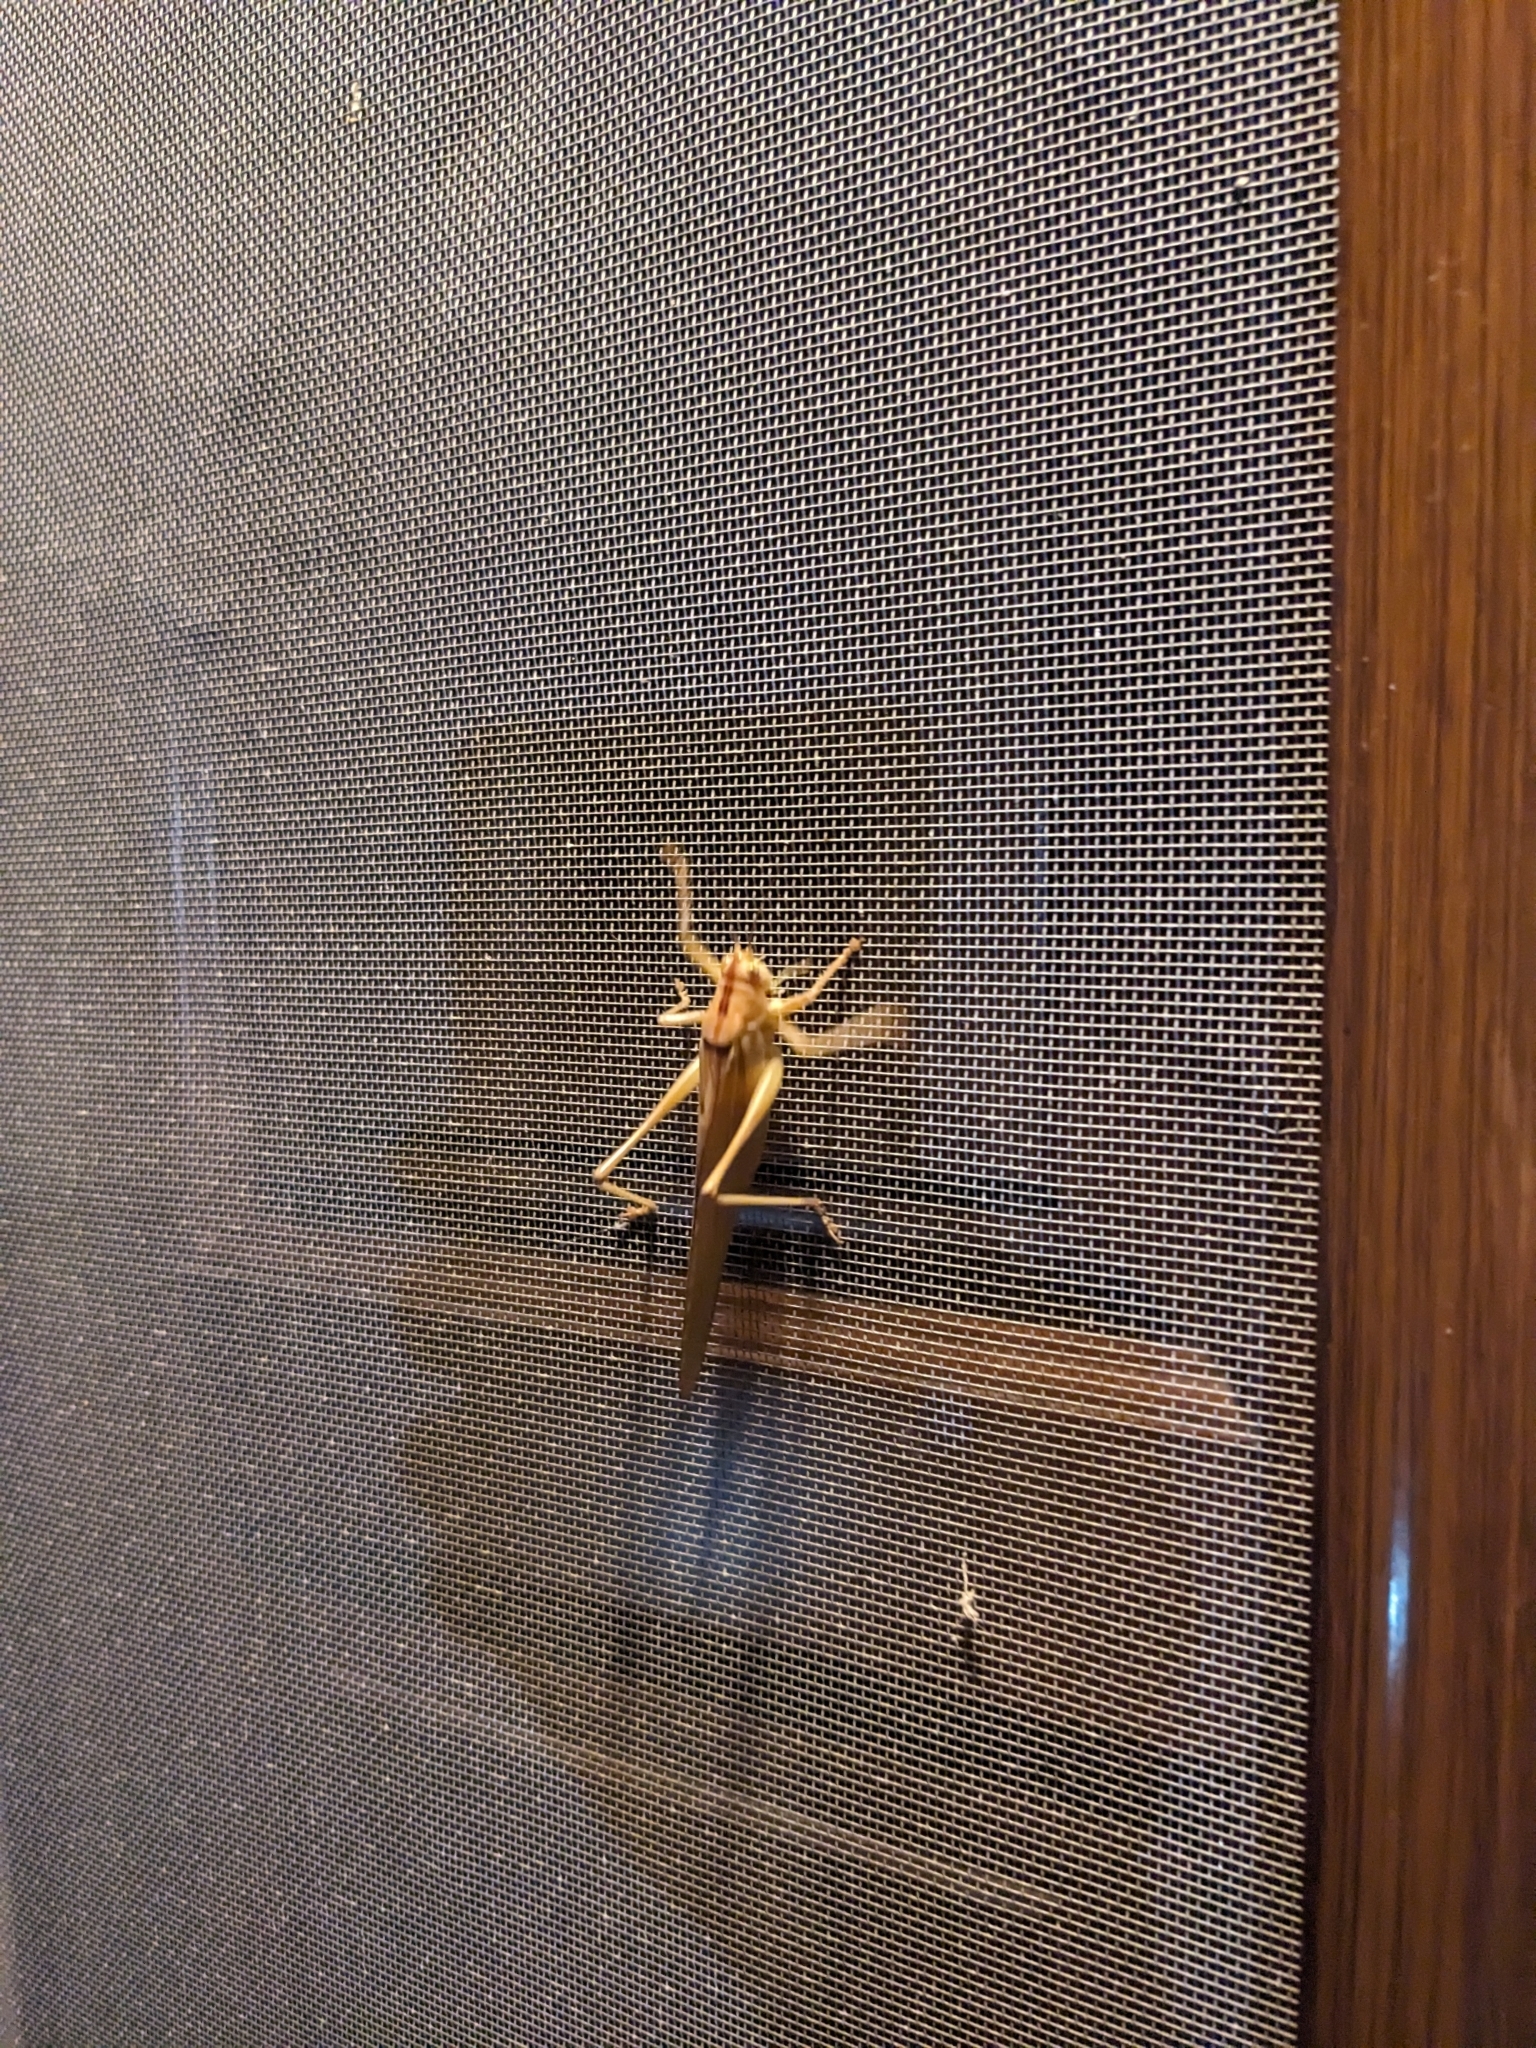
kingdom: Animalia
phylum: Arthropoda
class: Insecta
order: Orthoptera
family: Tettigoniidae
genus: Tettigonia
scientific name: Tettigonia viridissima
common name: Great green bush-cricket
